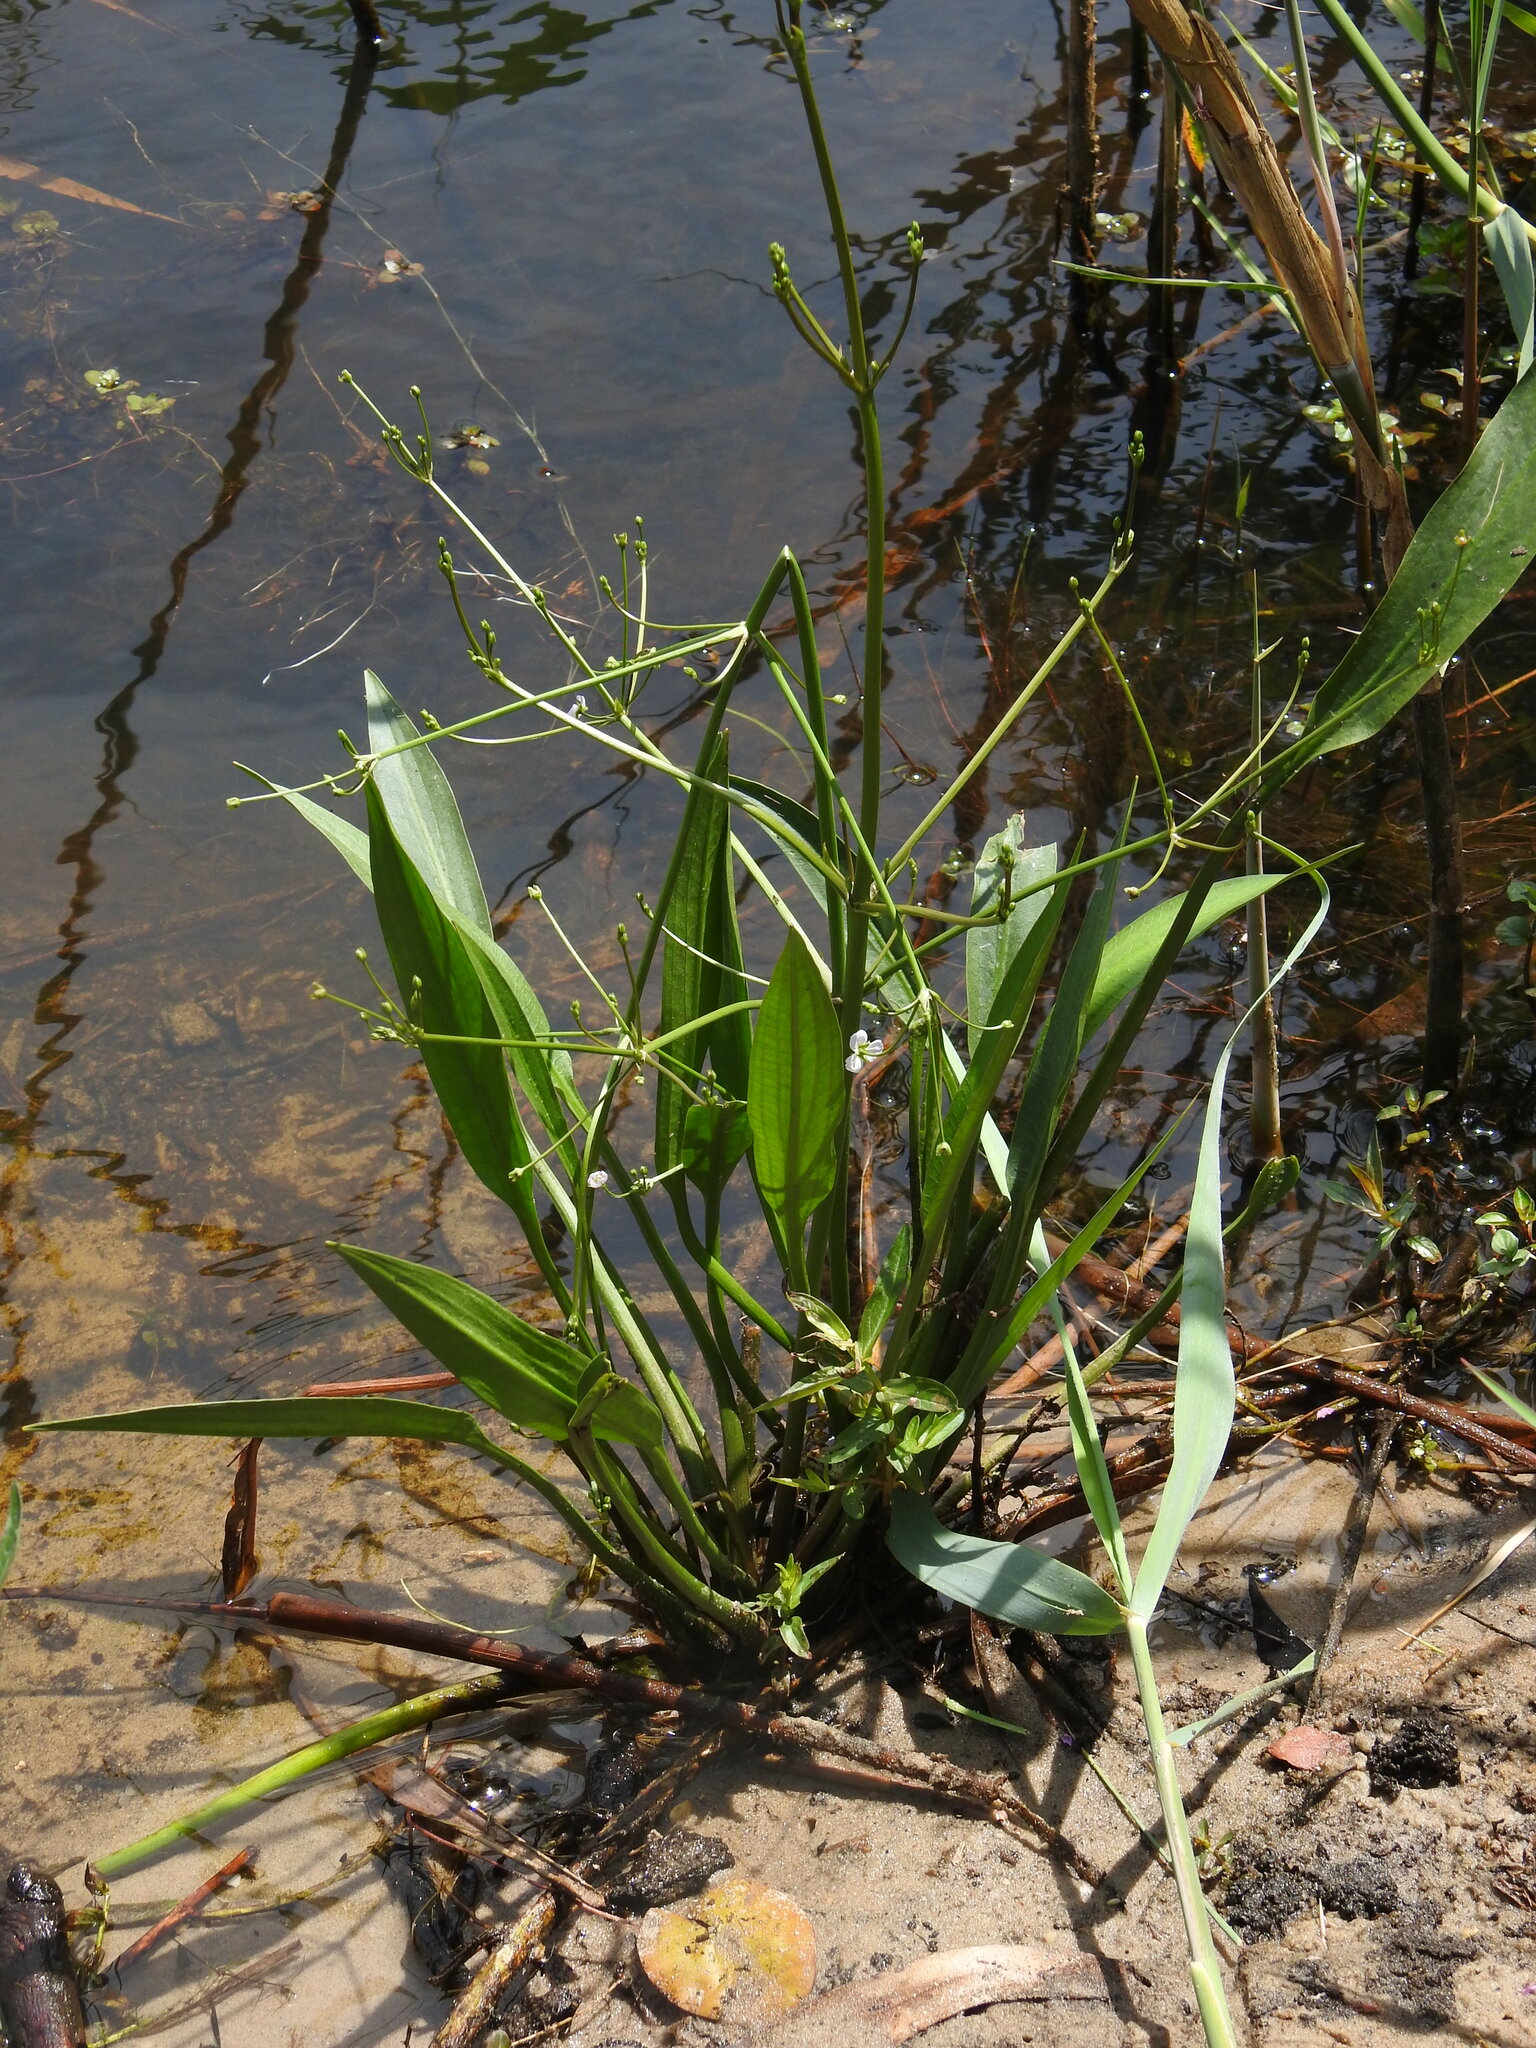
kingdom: Plantae
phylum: Tracheophyta
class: Liliopsida
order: Alismatales
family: Alismataceae
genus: Alisma
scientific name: Alisma lanceolatum
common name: Narrow-leaved water-plantain
